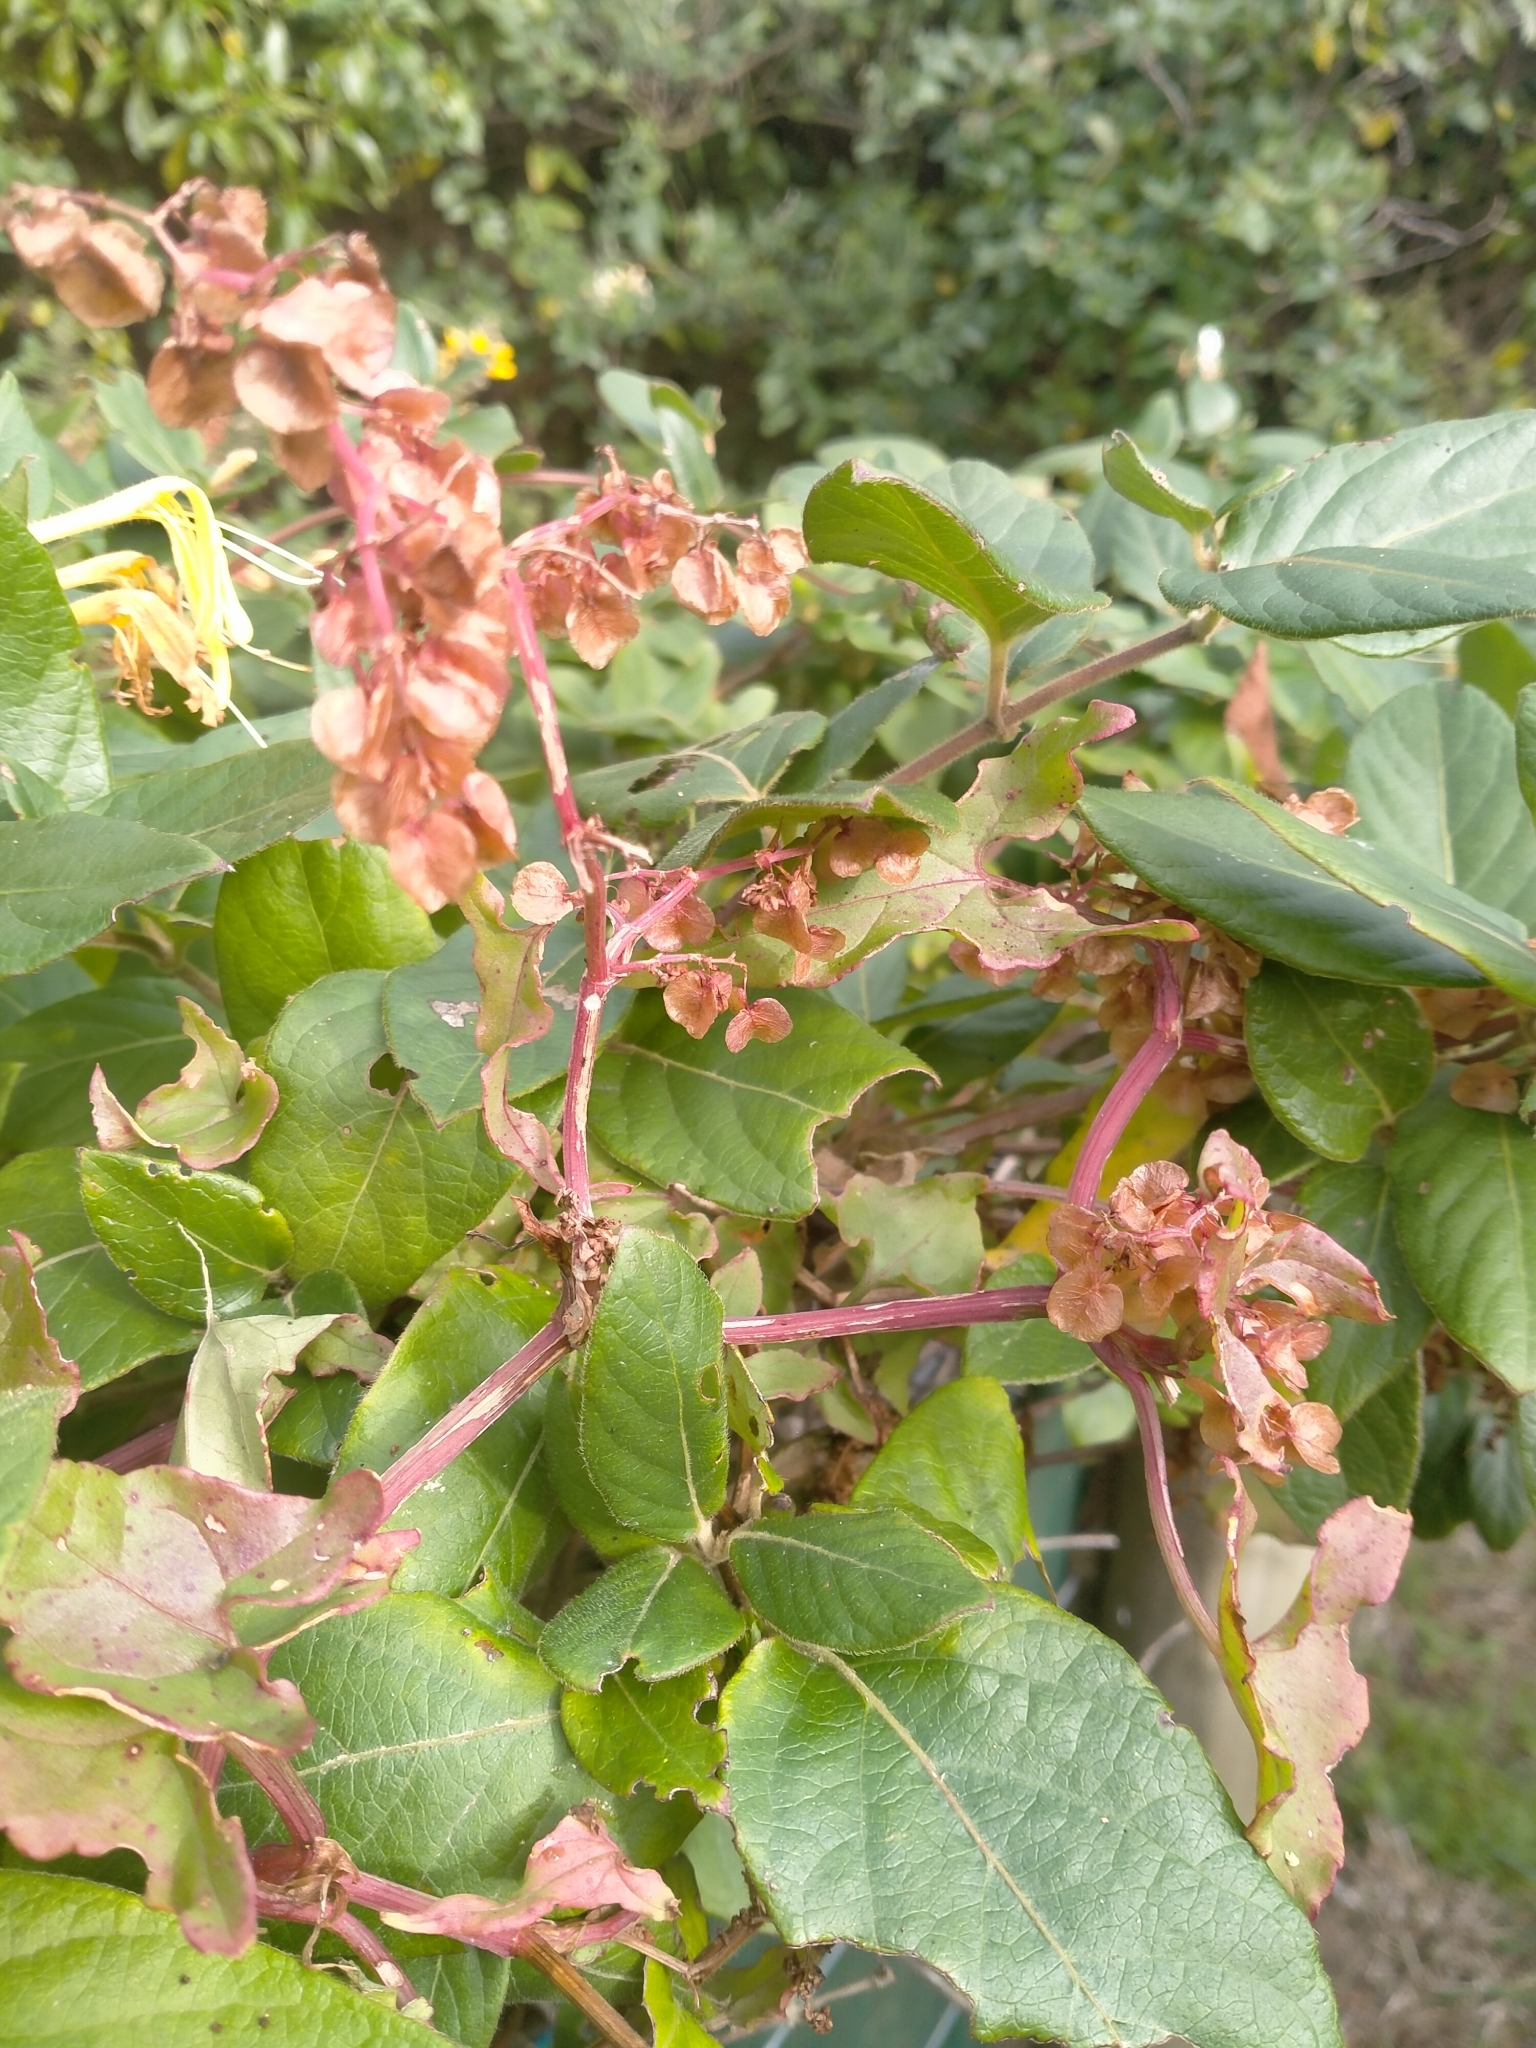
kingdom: Plantae
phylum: Tracheophyta
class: Magnoliopsida
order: Caryophyllales
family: Polygonaceae
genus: Rumex
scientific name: Rumex sagittatus
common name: Climbing dock
